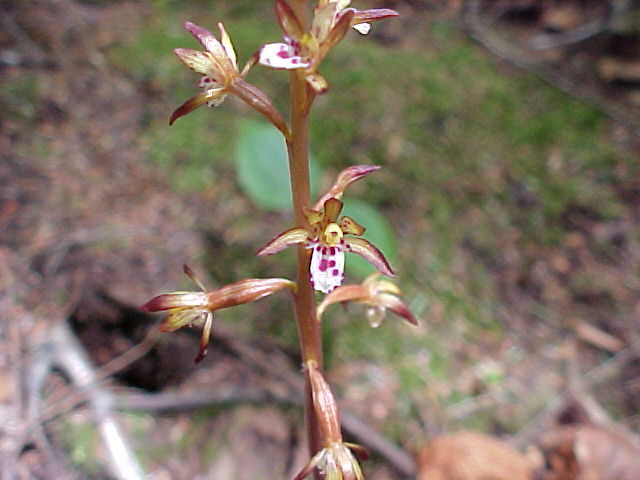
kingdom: Plantae
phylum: Tracheophyta
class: Liliopsida
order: Asparagales
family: Orchidaceae
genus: Corallorhiza
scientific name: Corallorhiza maculata
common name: Spotted coralroot
